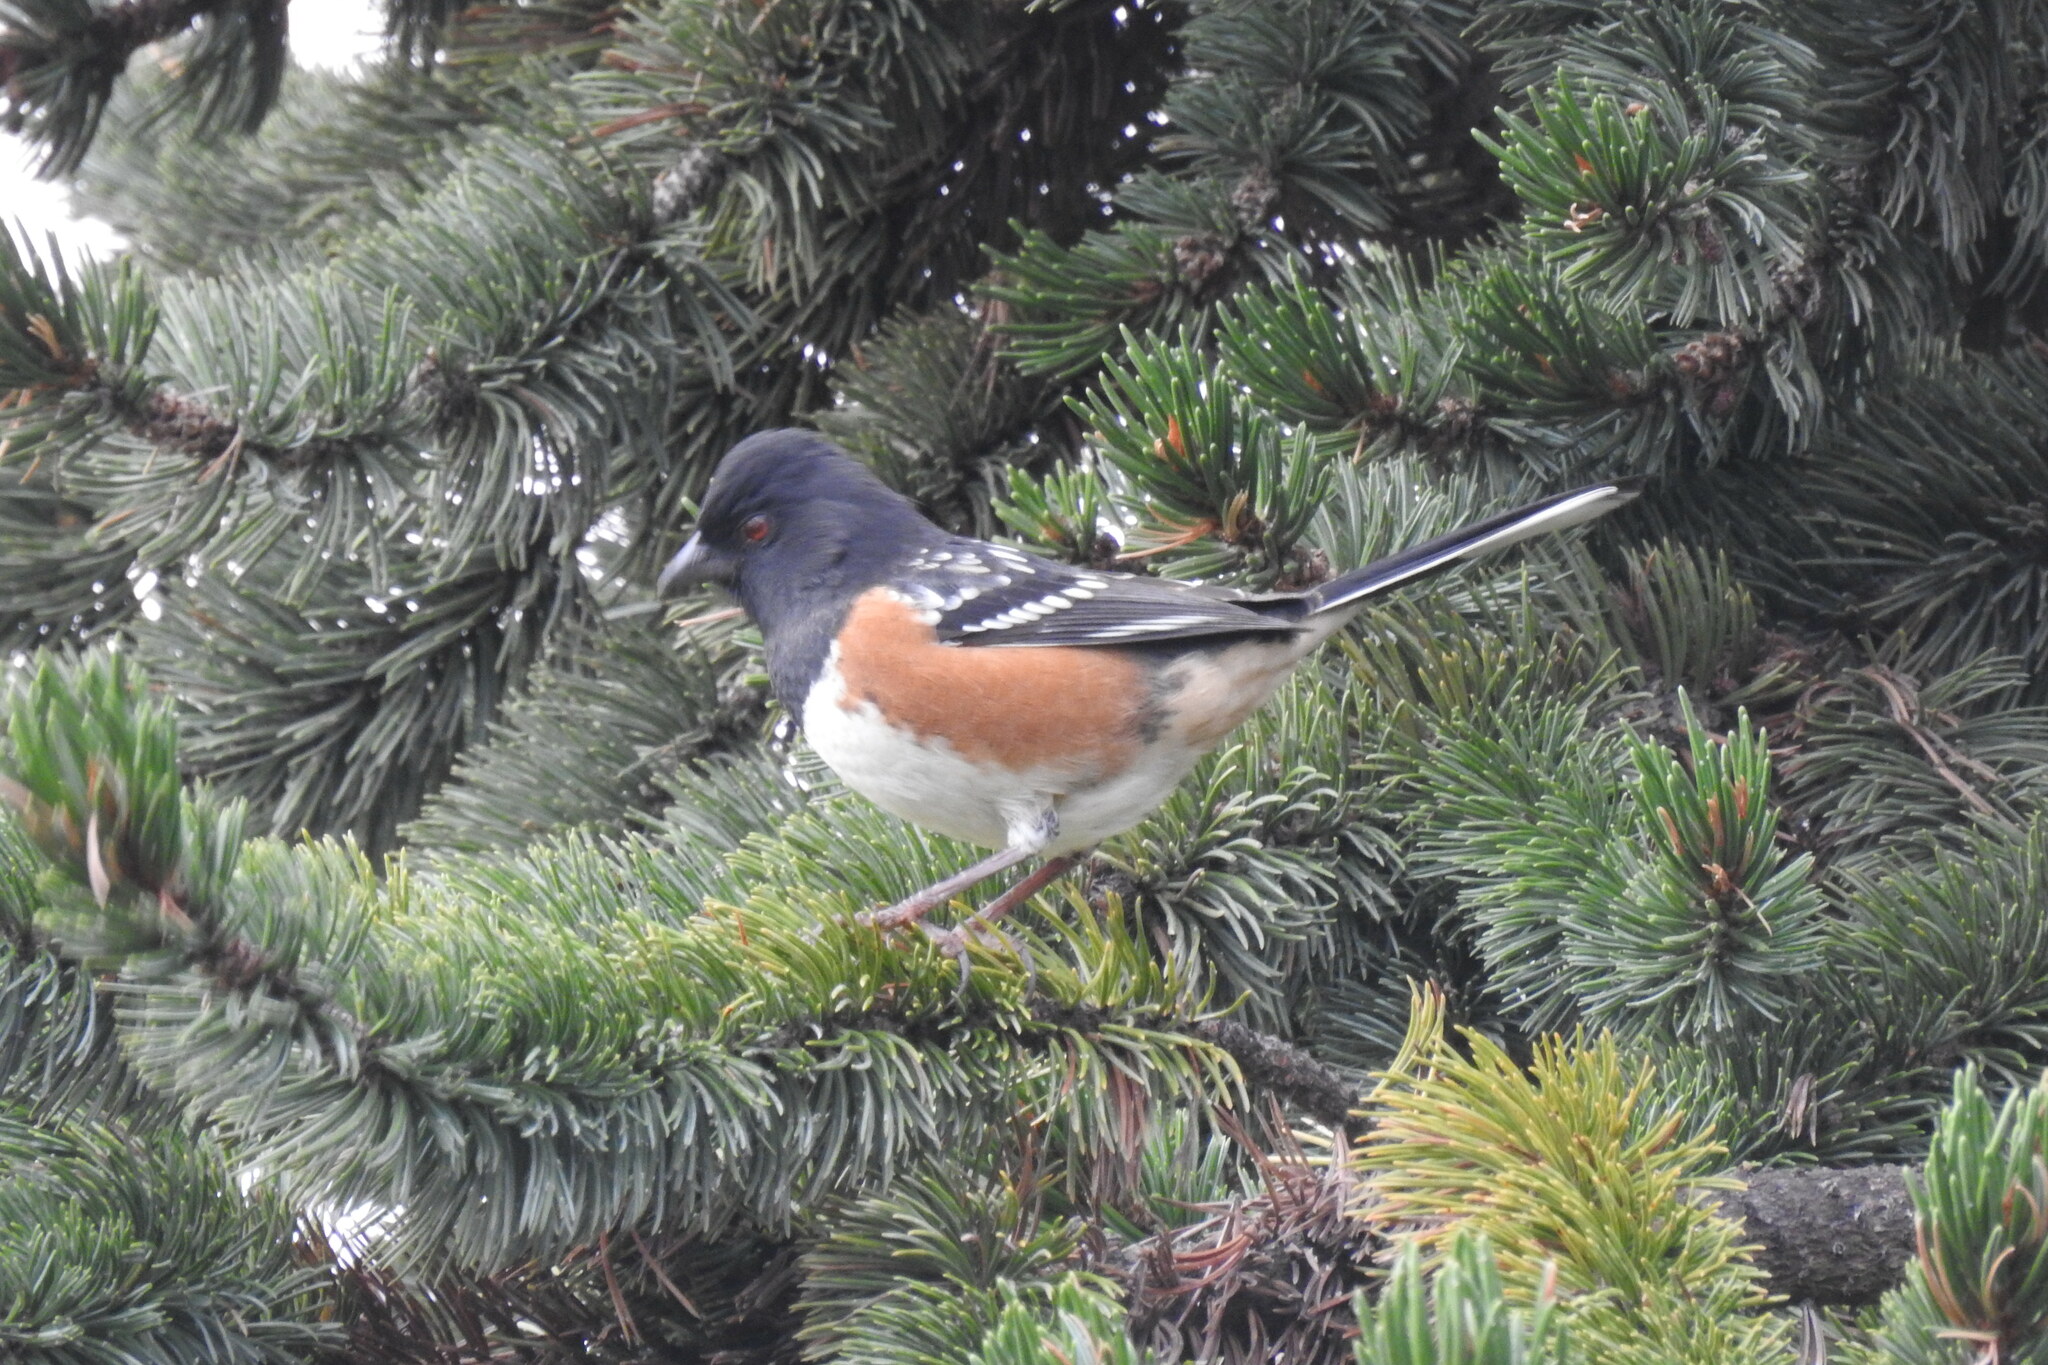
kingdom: Animalia
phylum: Chordata
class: Aves
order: Passeriformes
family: Passerellidae
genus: Pipilo
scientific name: Pipilo maculatus
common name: Spotted towhee
